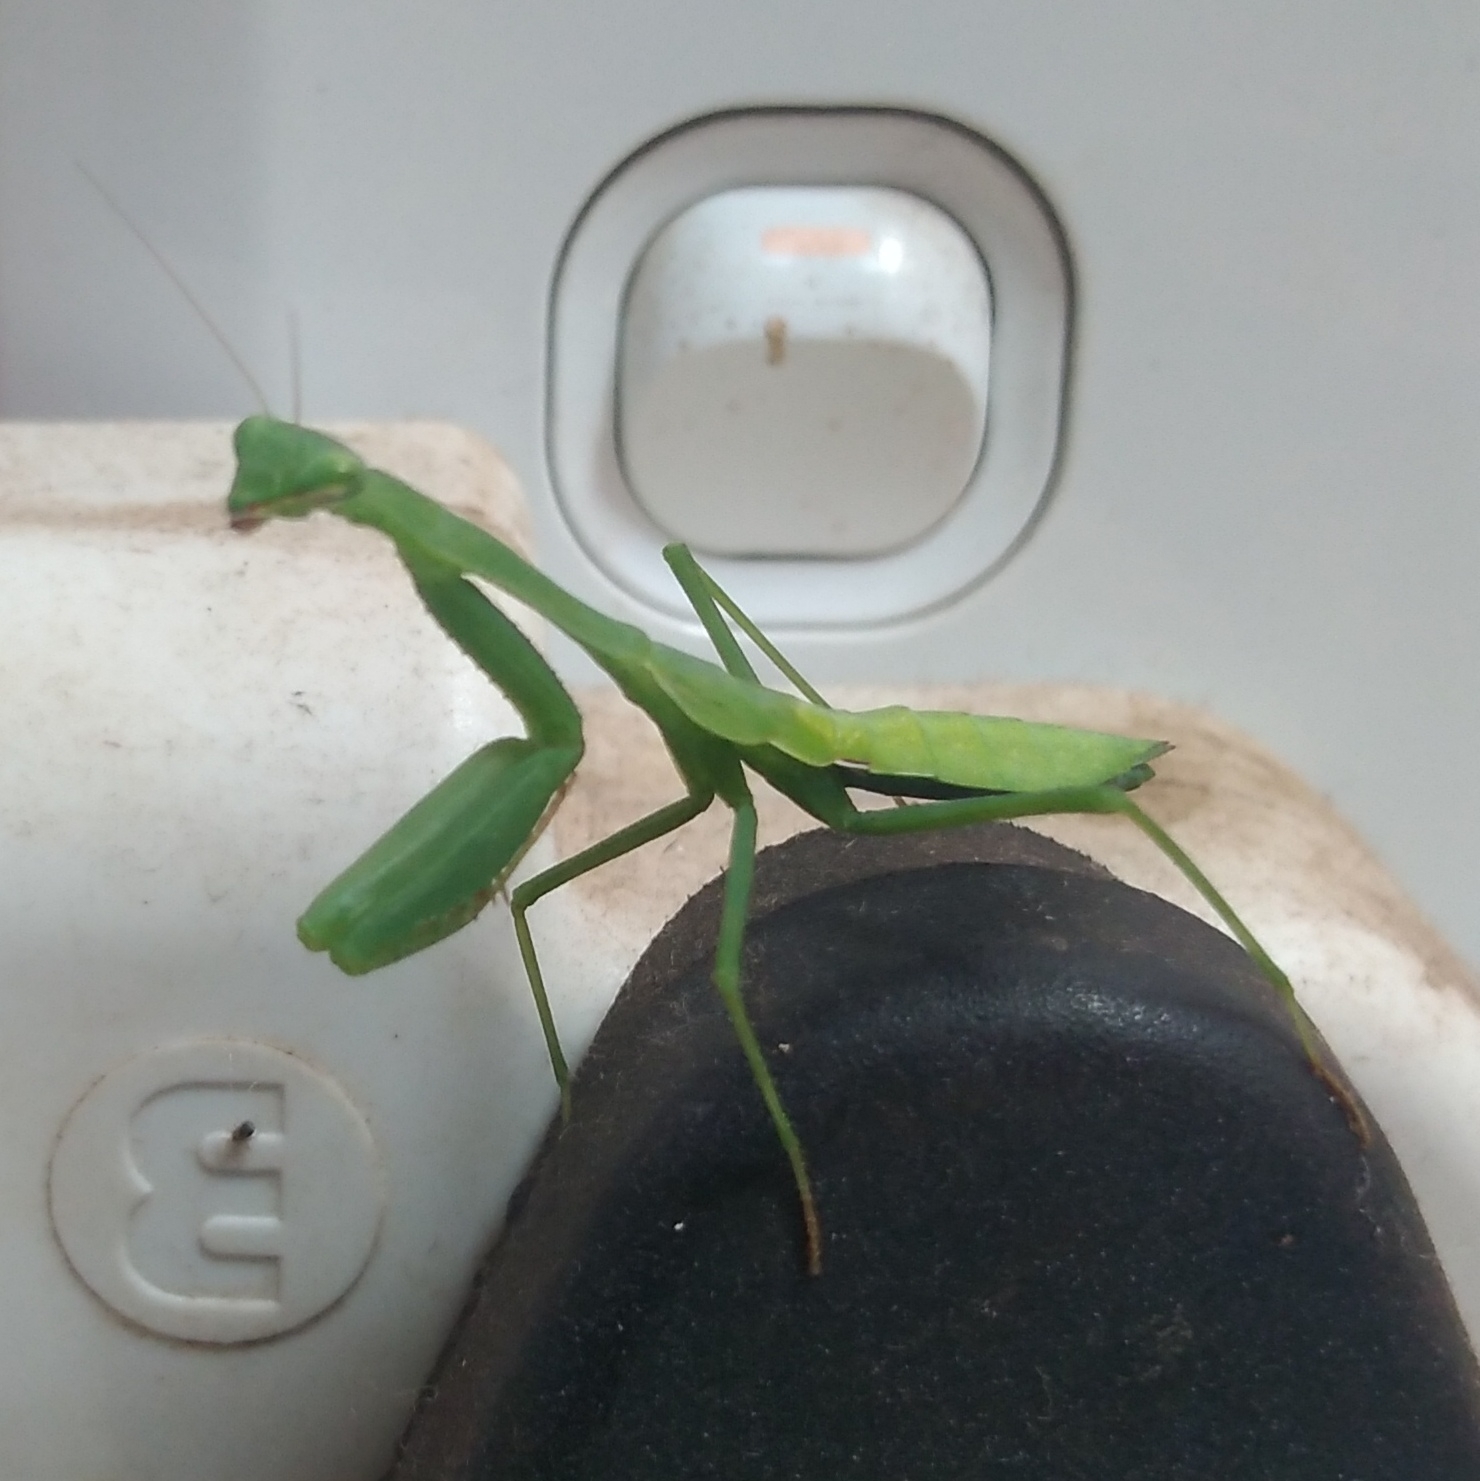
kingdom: Animalia
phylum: Arthropoda
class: Insecta
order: Mantodea
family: Miomantidae
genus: Miomantis
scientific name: Miomantis caffra
